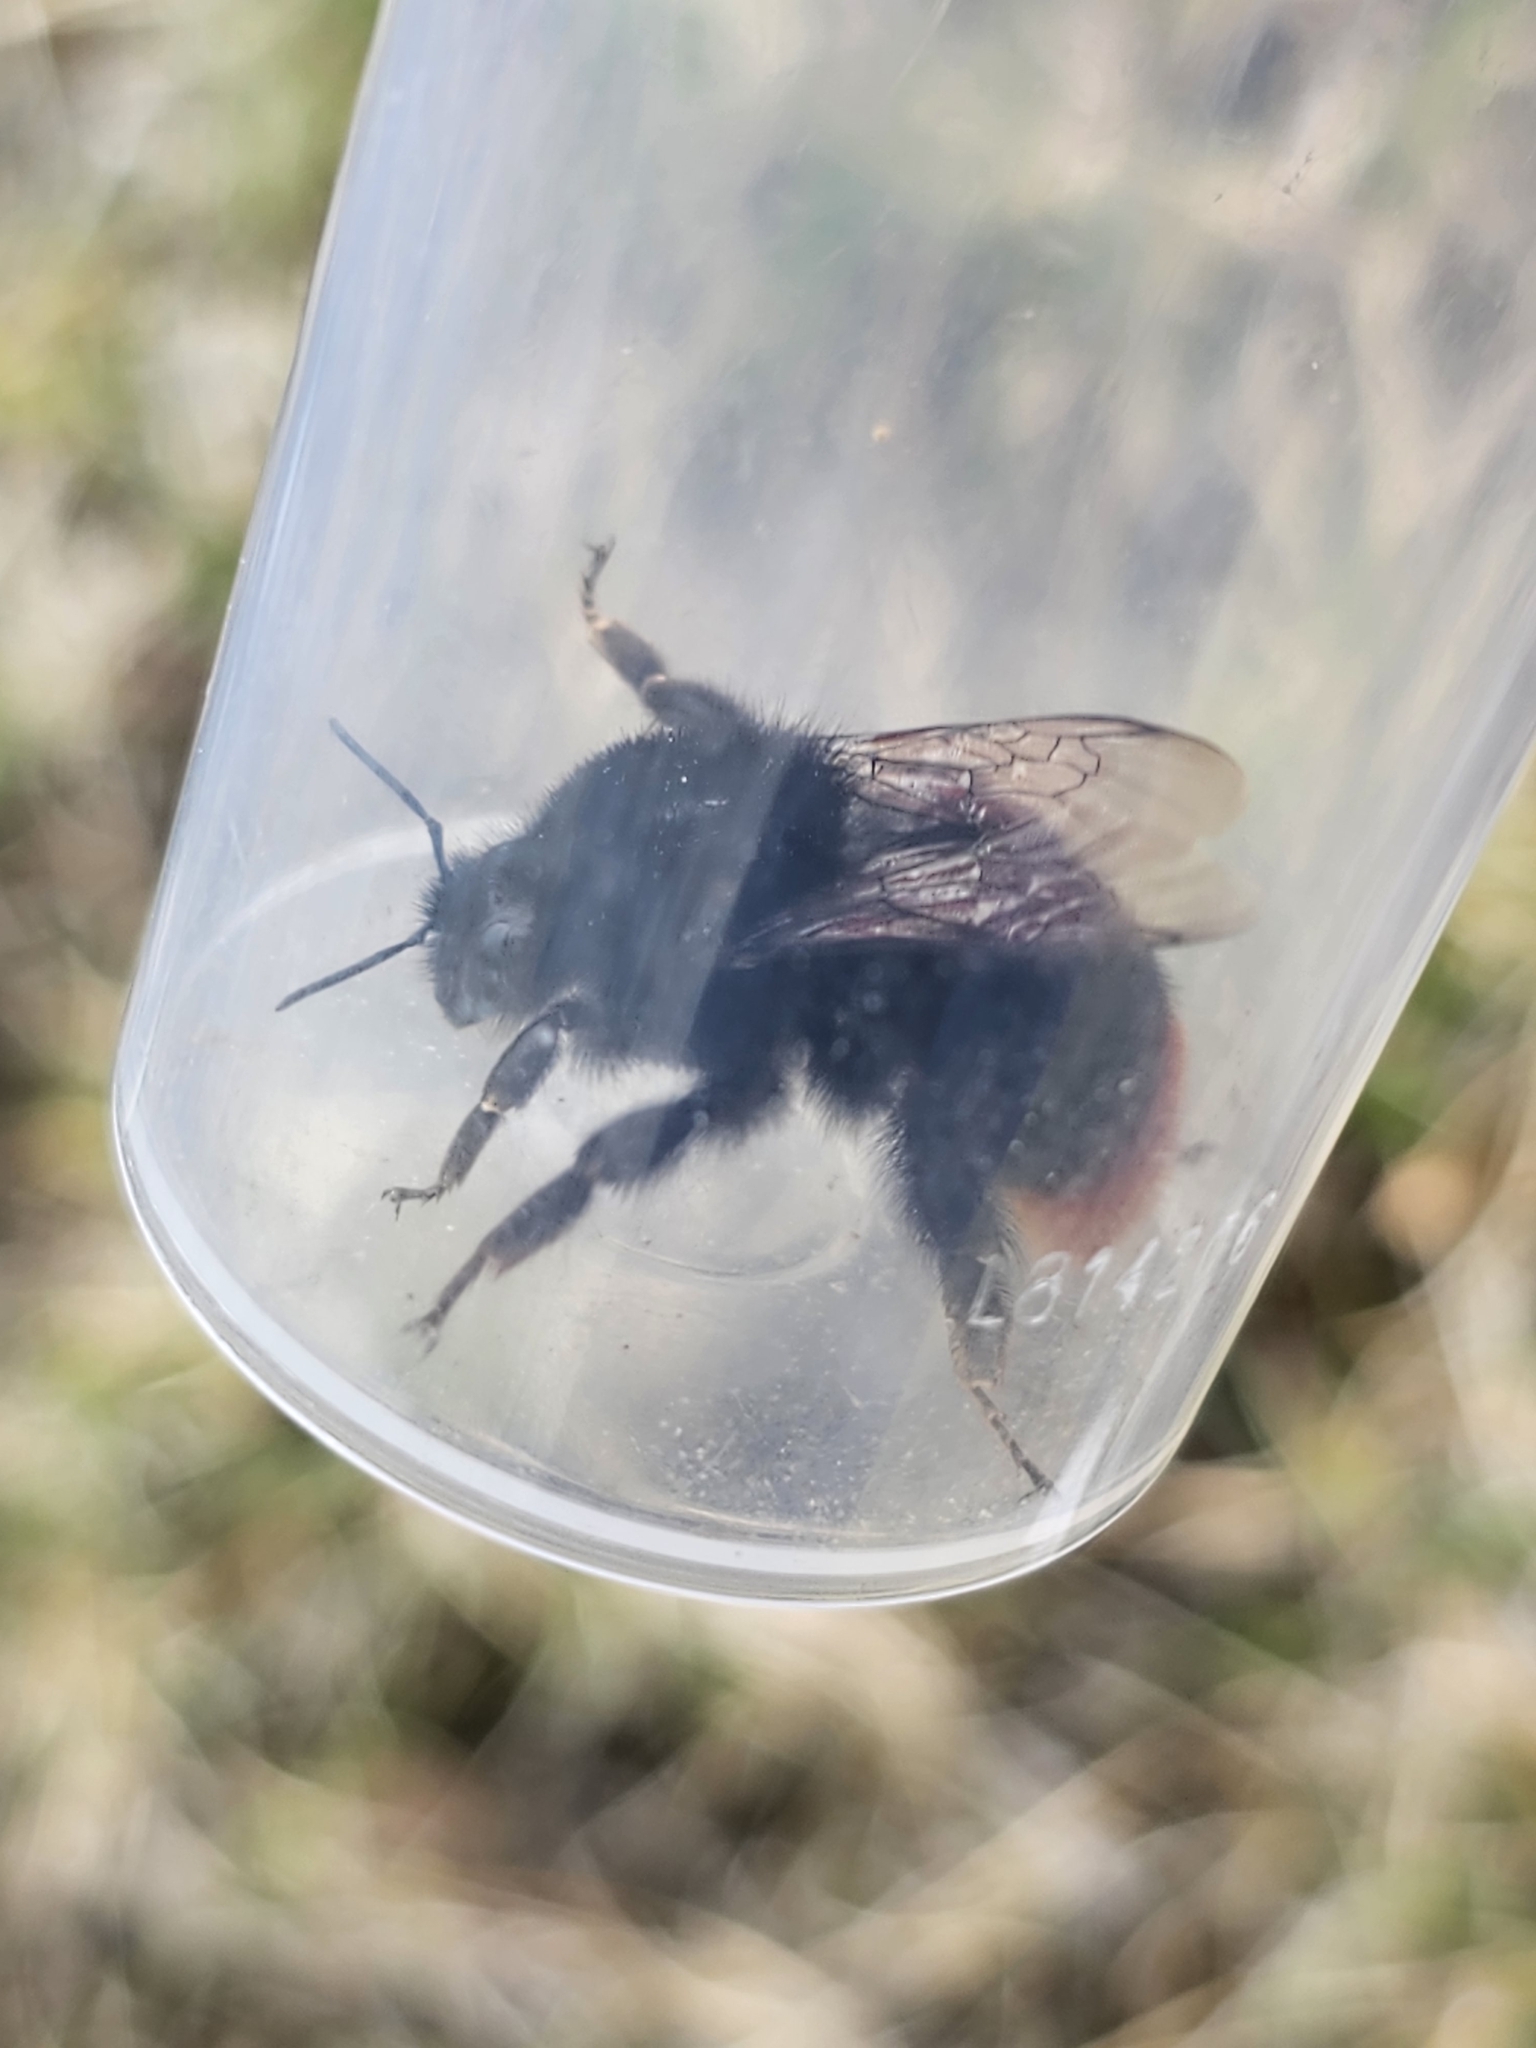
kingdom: Animalia
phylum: Arthropoda
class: Insecta
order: Hymenoptera
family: Apidae
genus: Bombus
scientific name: Bombus lapidarius
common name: Large red-tailed humble-bee
